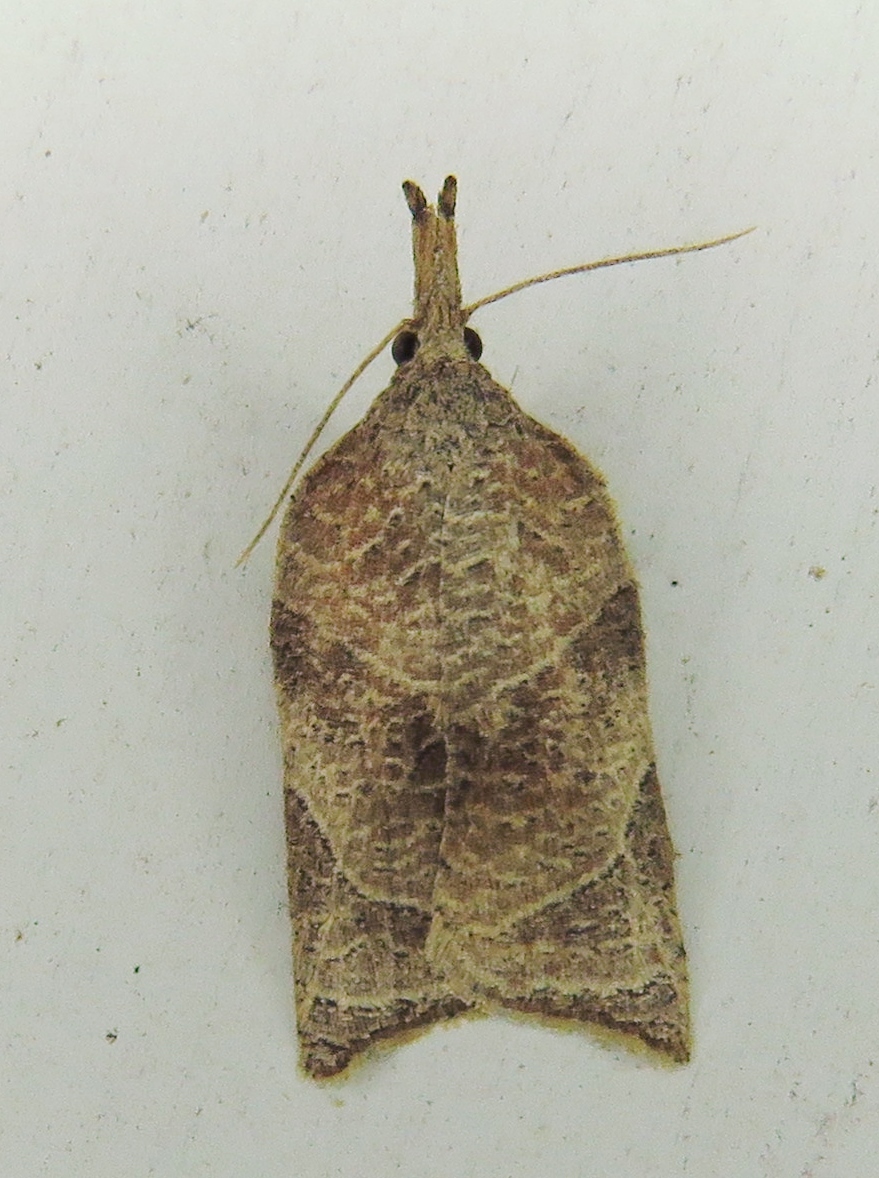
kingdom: Animalia
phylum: Arthropoda
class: Insecta
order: Lepidoptera
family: Tortricidae
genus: Platynota
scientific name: Platynota rostrana
